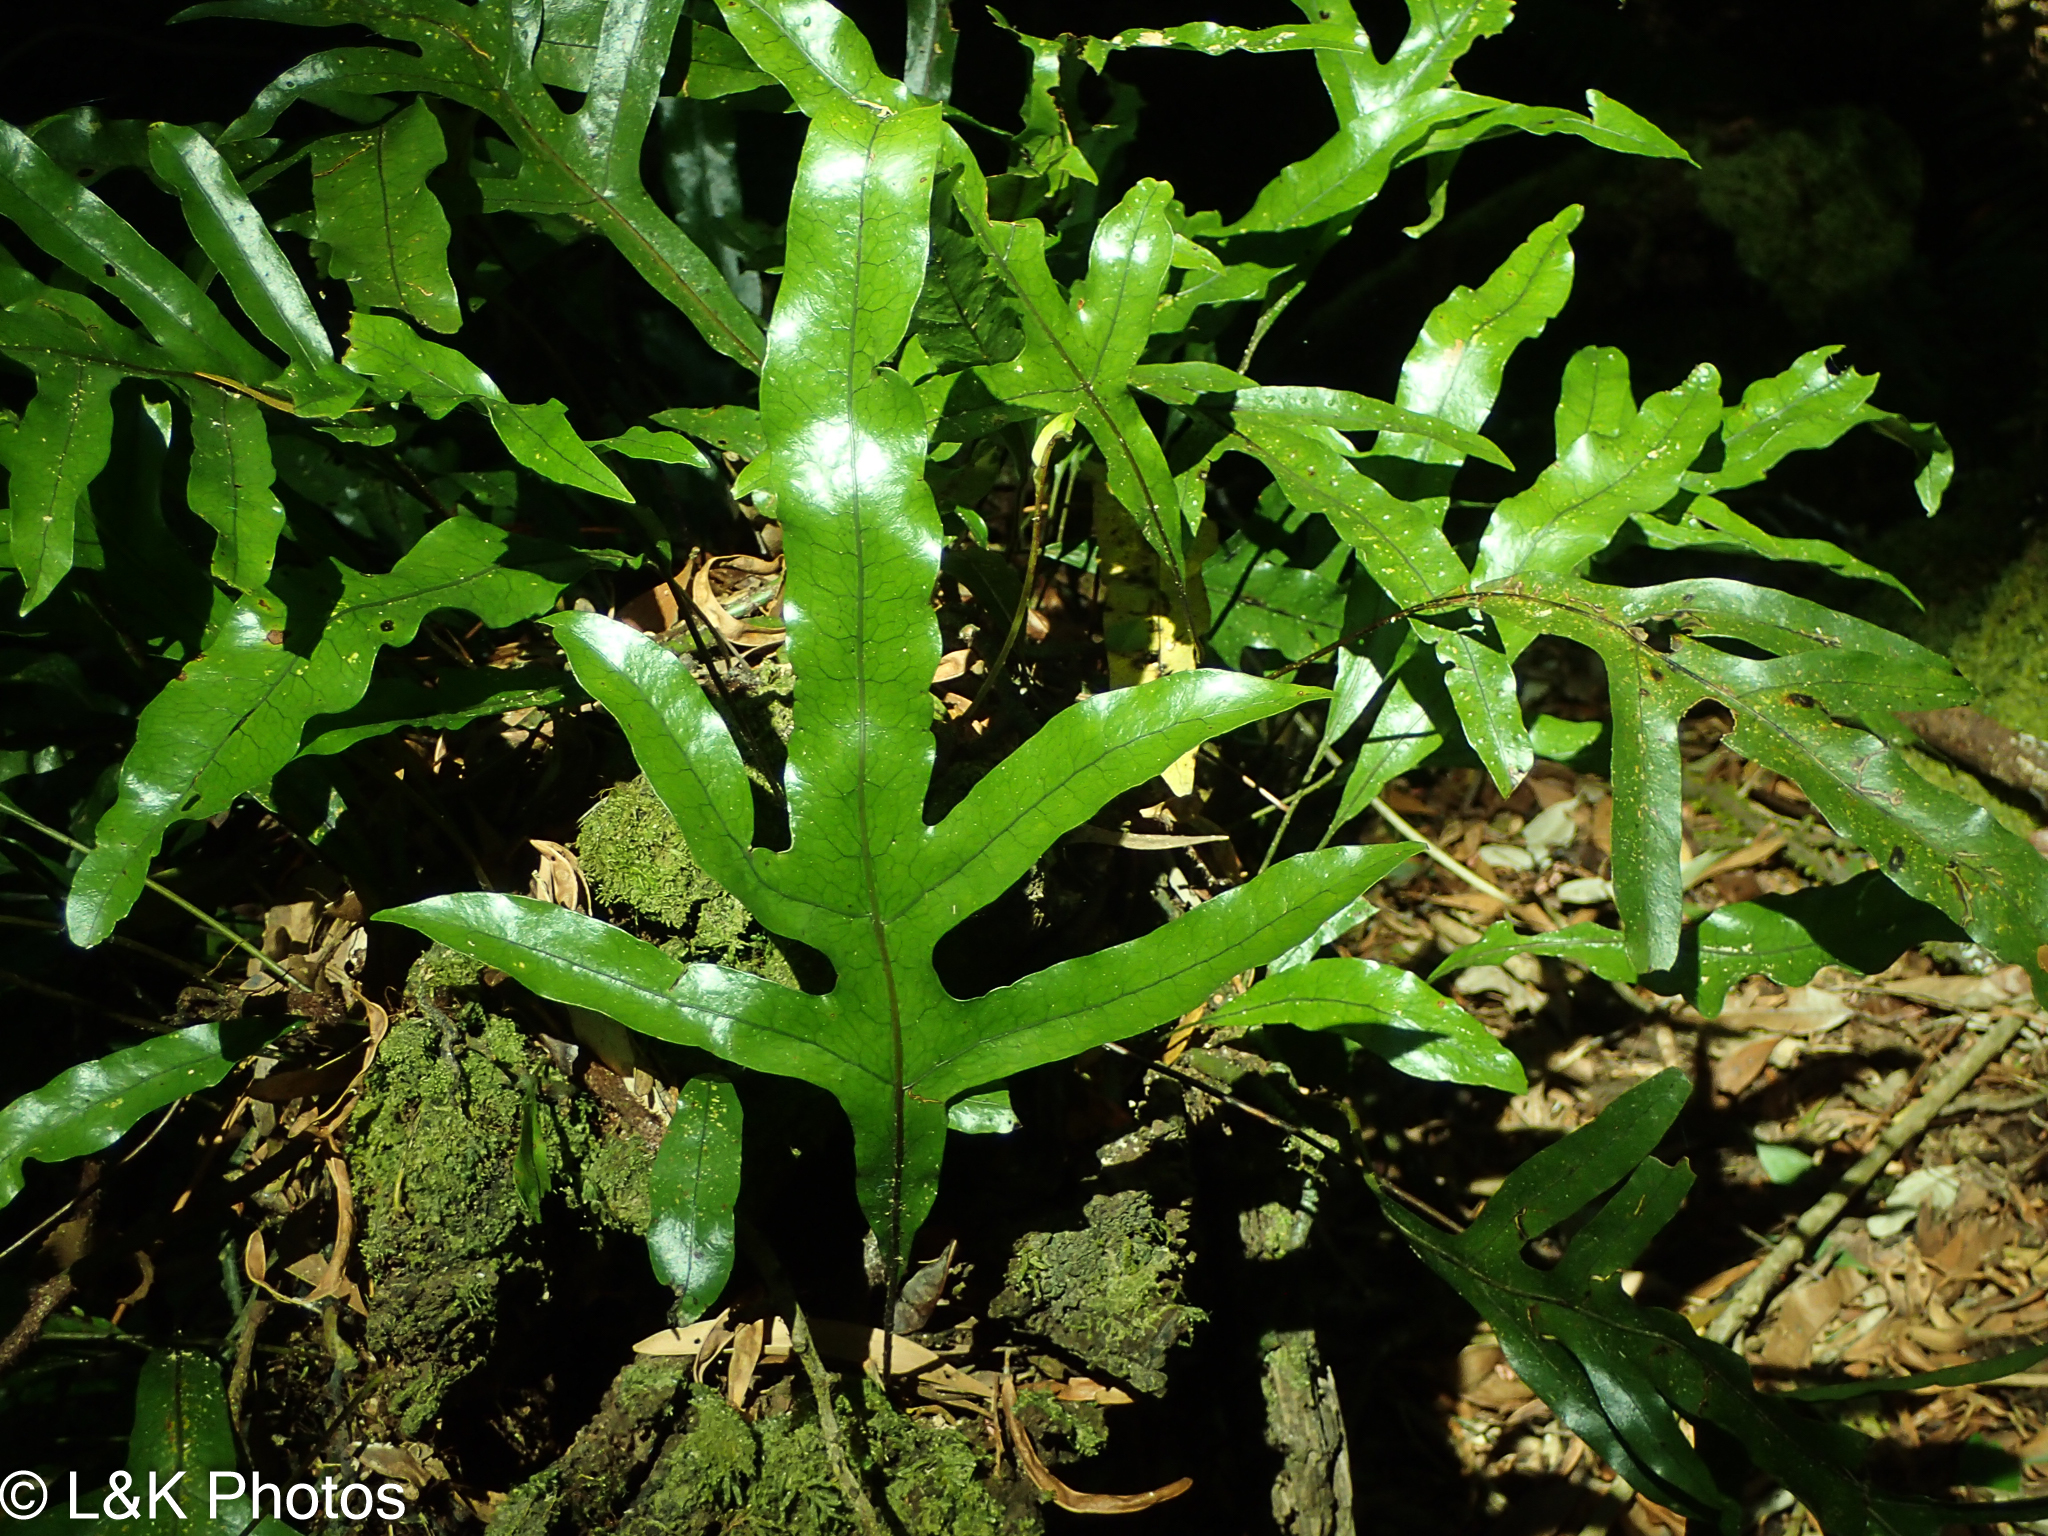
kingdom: Plantae
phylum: Tracheophyta
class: Polypodiopsida
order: Polypodiales
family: Polypodiaceae
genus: Lecanopteris
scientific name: Lecanopteris pustulata
